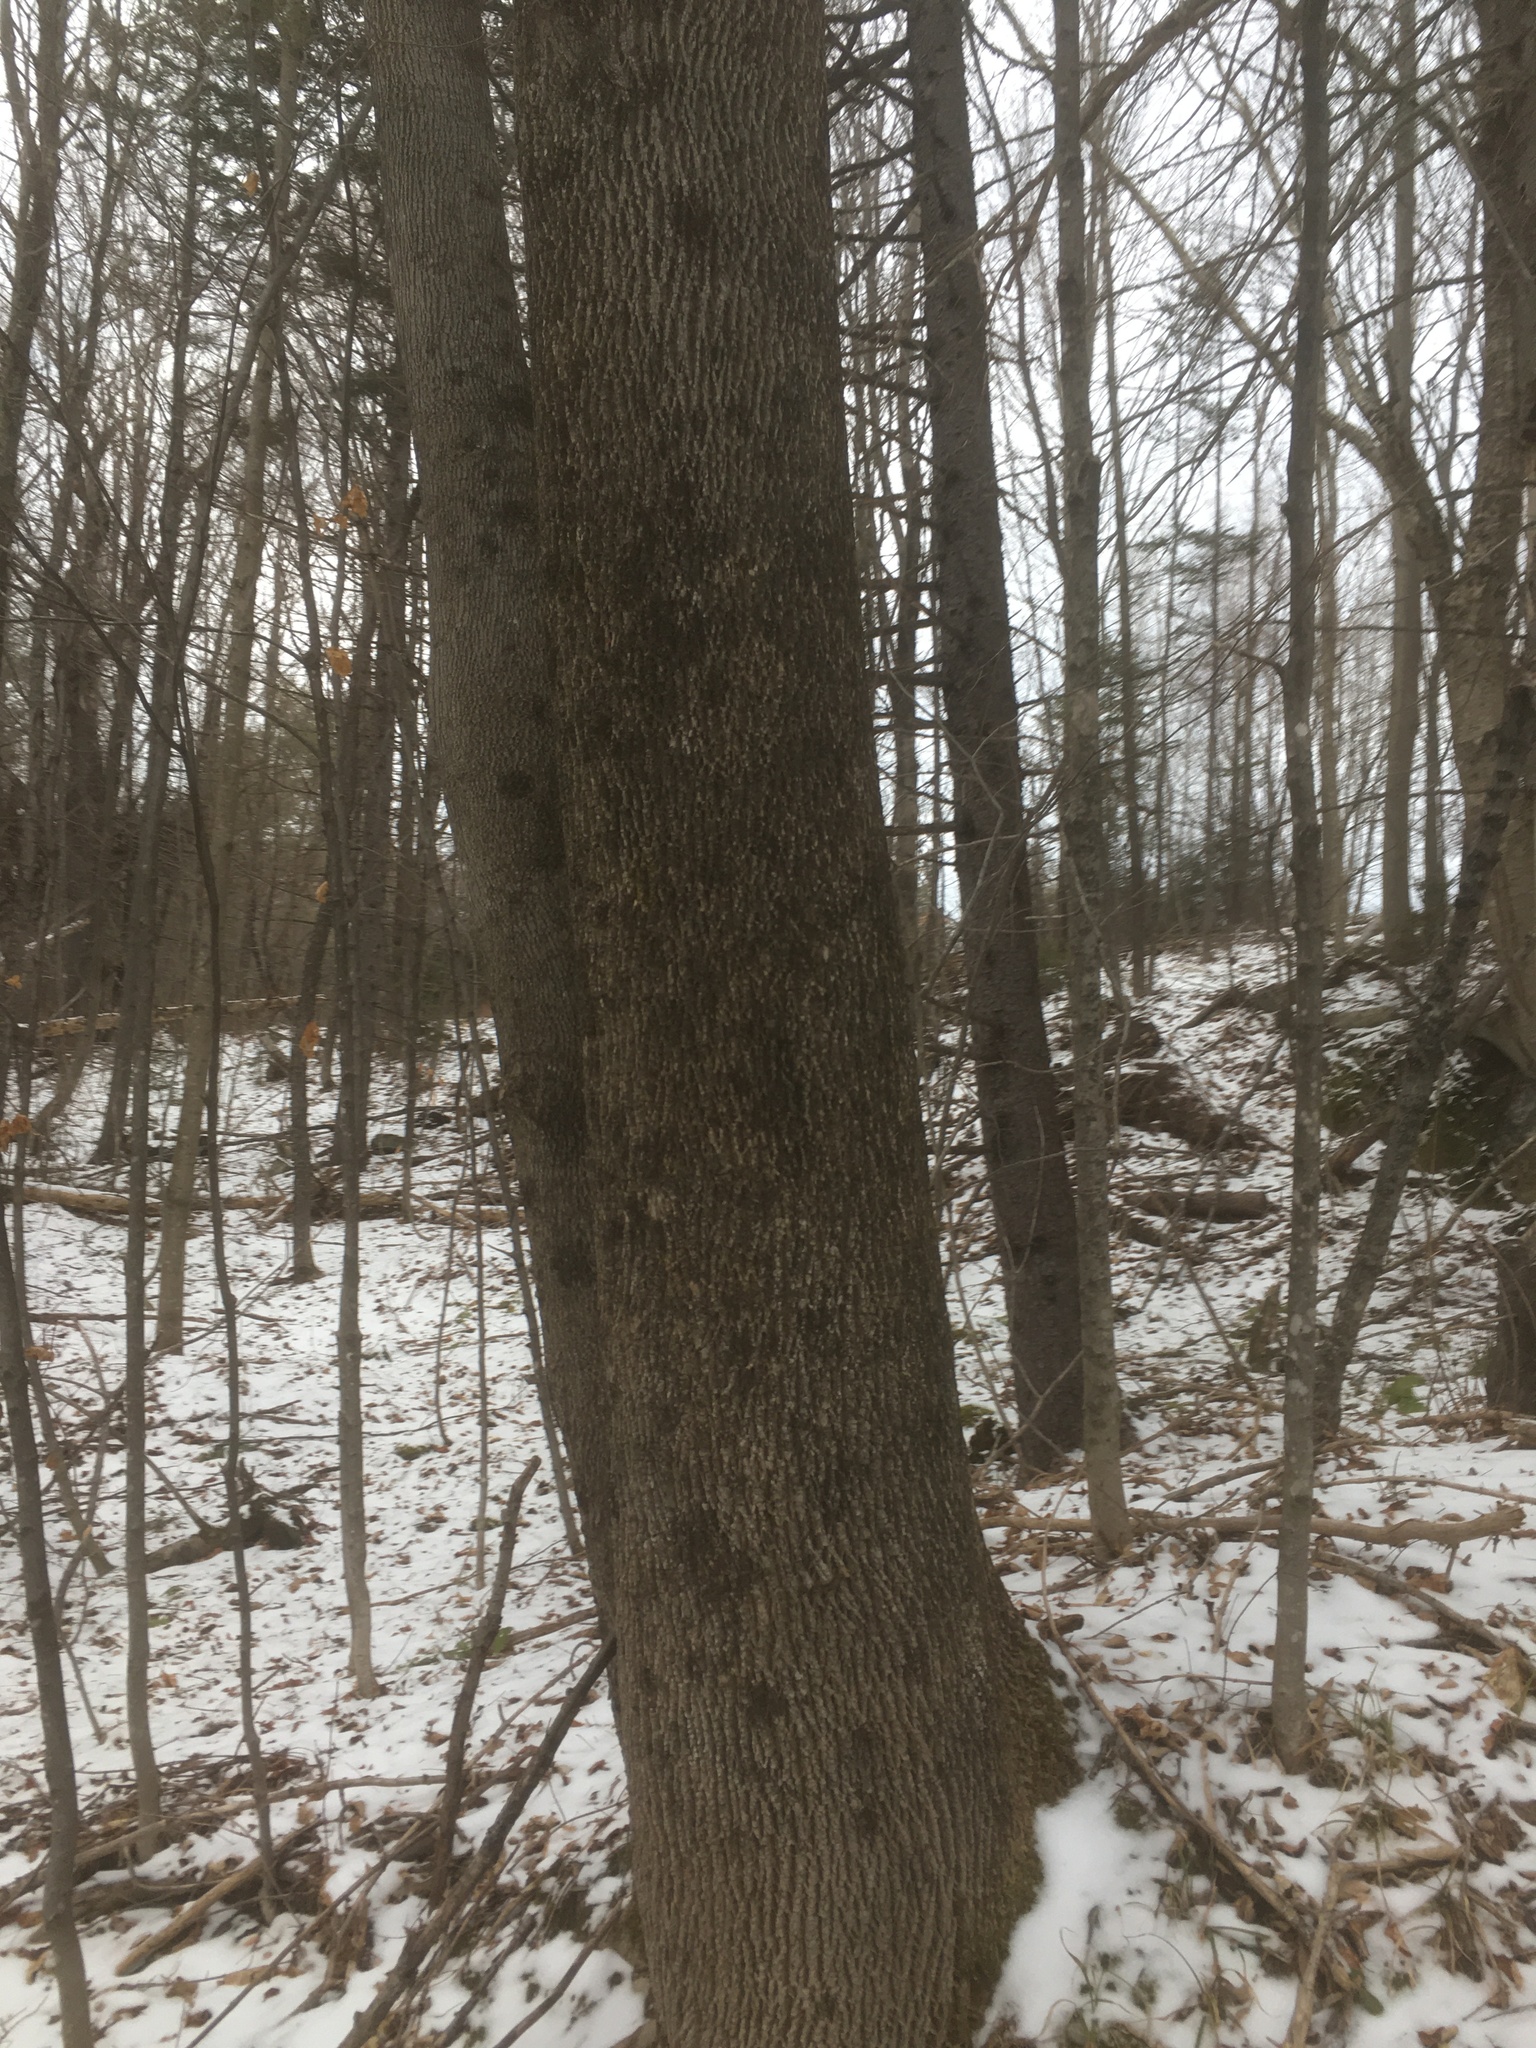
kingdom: Plantae
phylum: Tracheophyta
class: Magnoliopsida
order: Lamiales
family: Oleaceae
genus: Fraxinus
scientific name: Fraxinus americana
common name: White ash
